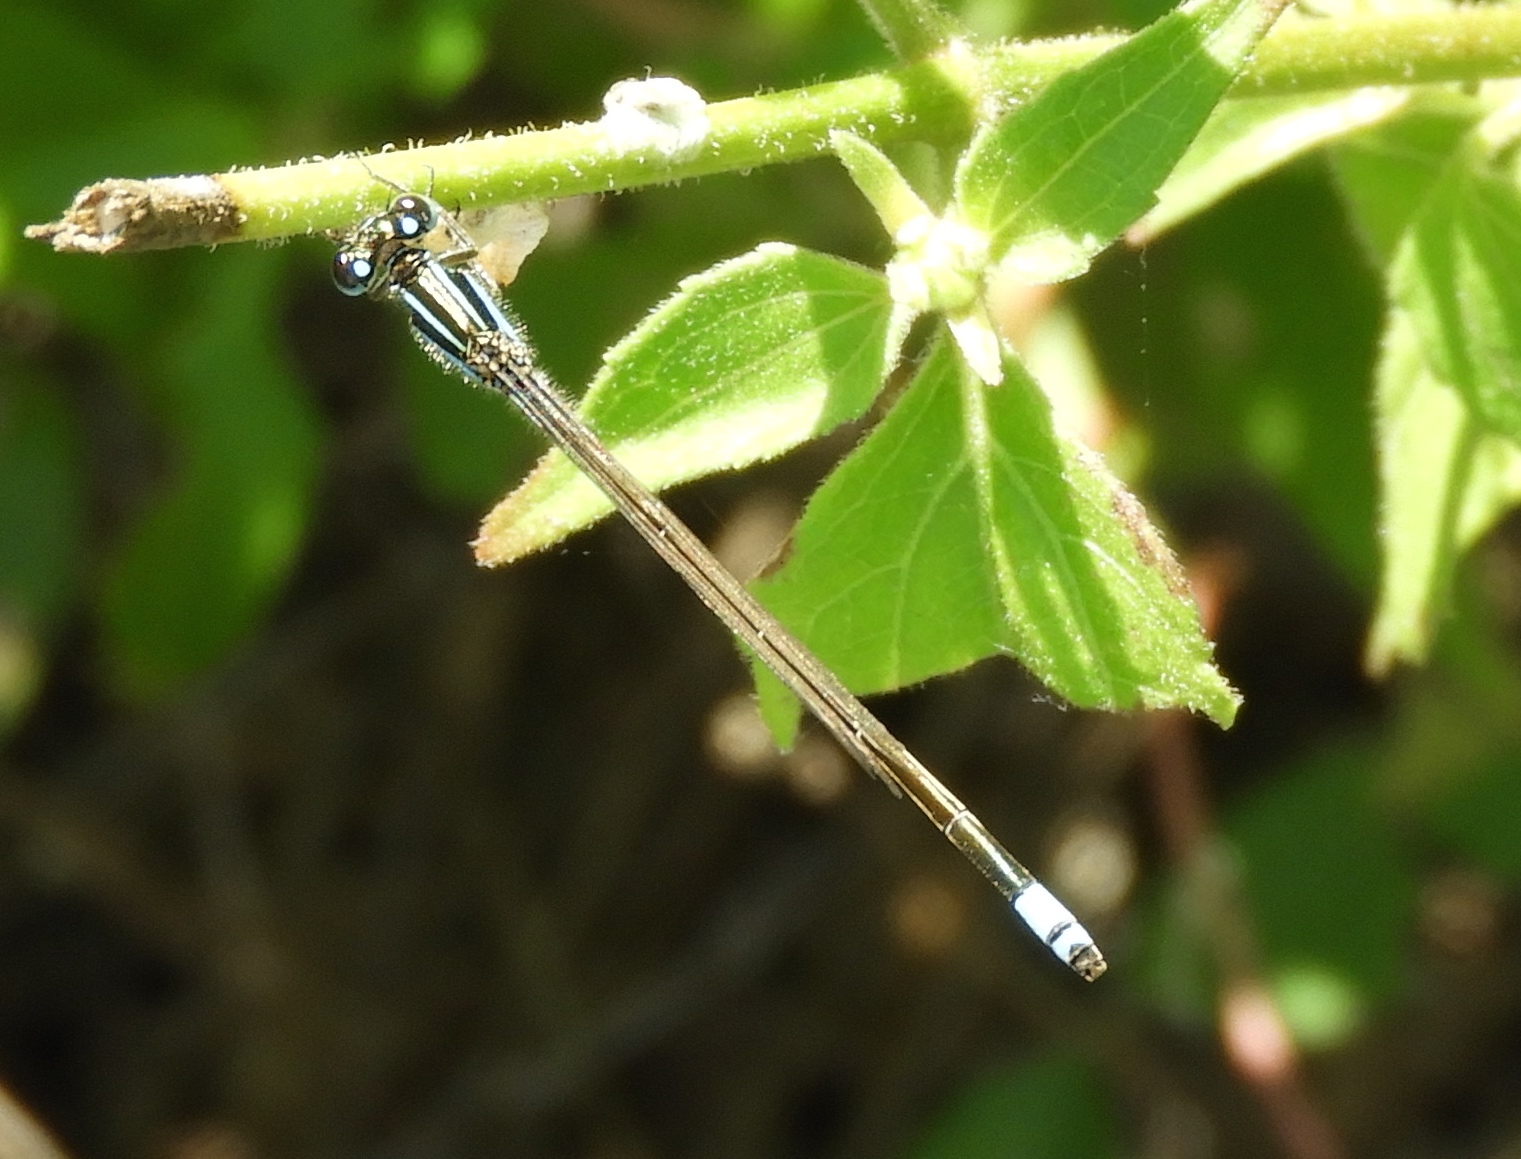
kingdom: Animalia
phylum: Arthropoda
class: Insecta
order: Odonata
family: Coenagrionidae
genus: Ischnura
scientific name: Ischnura ramburii
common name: Rambur's forktail
